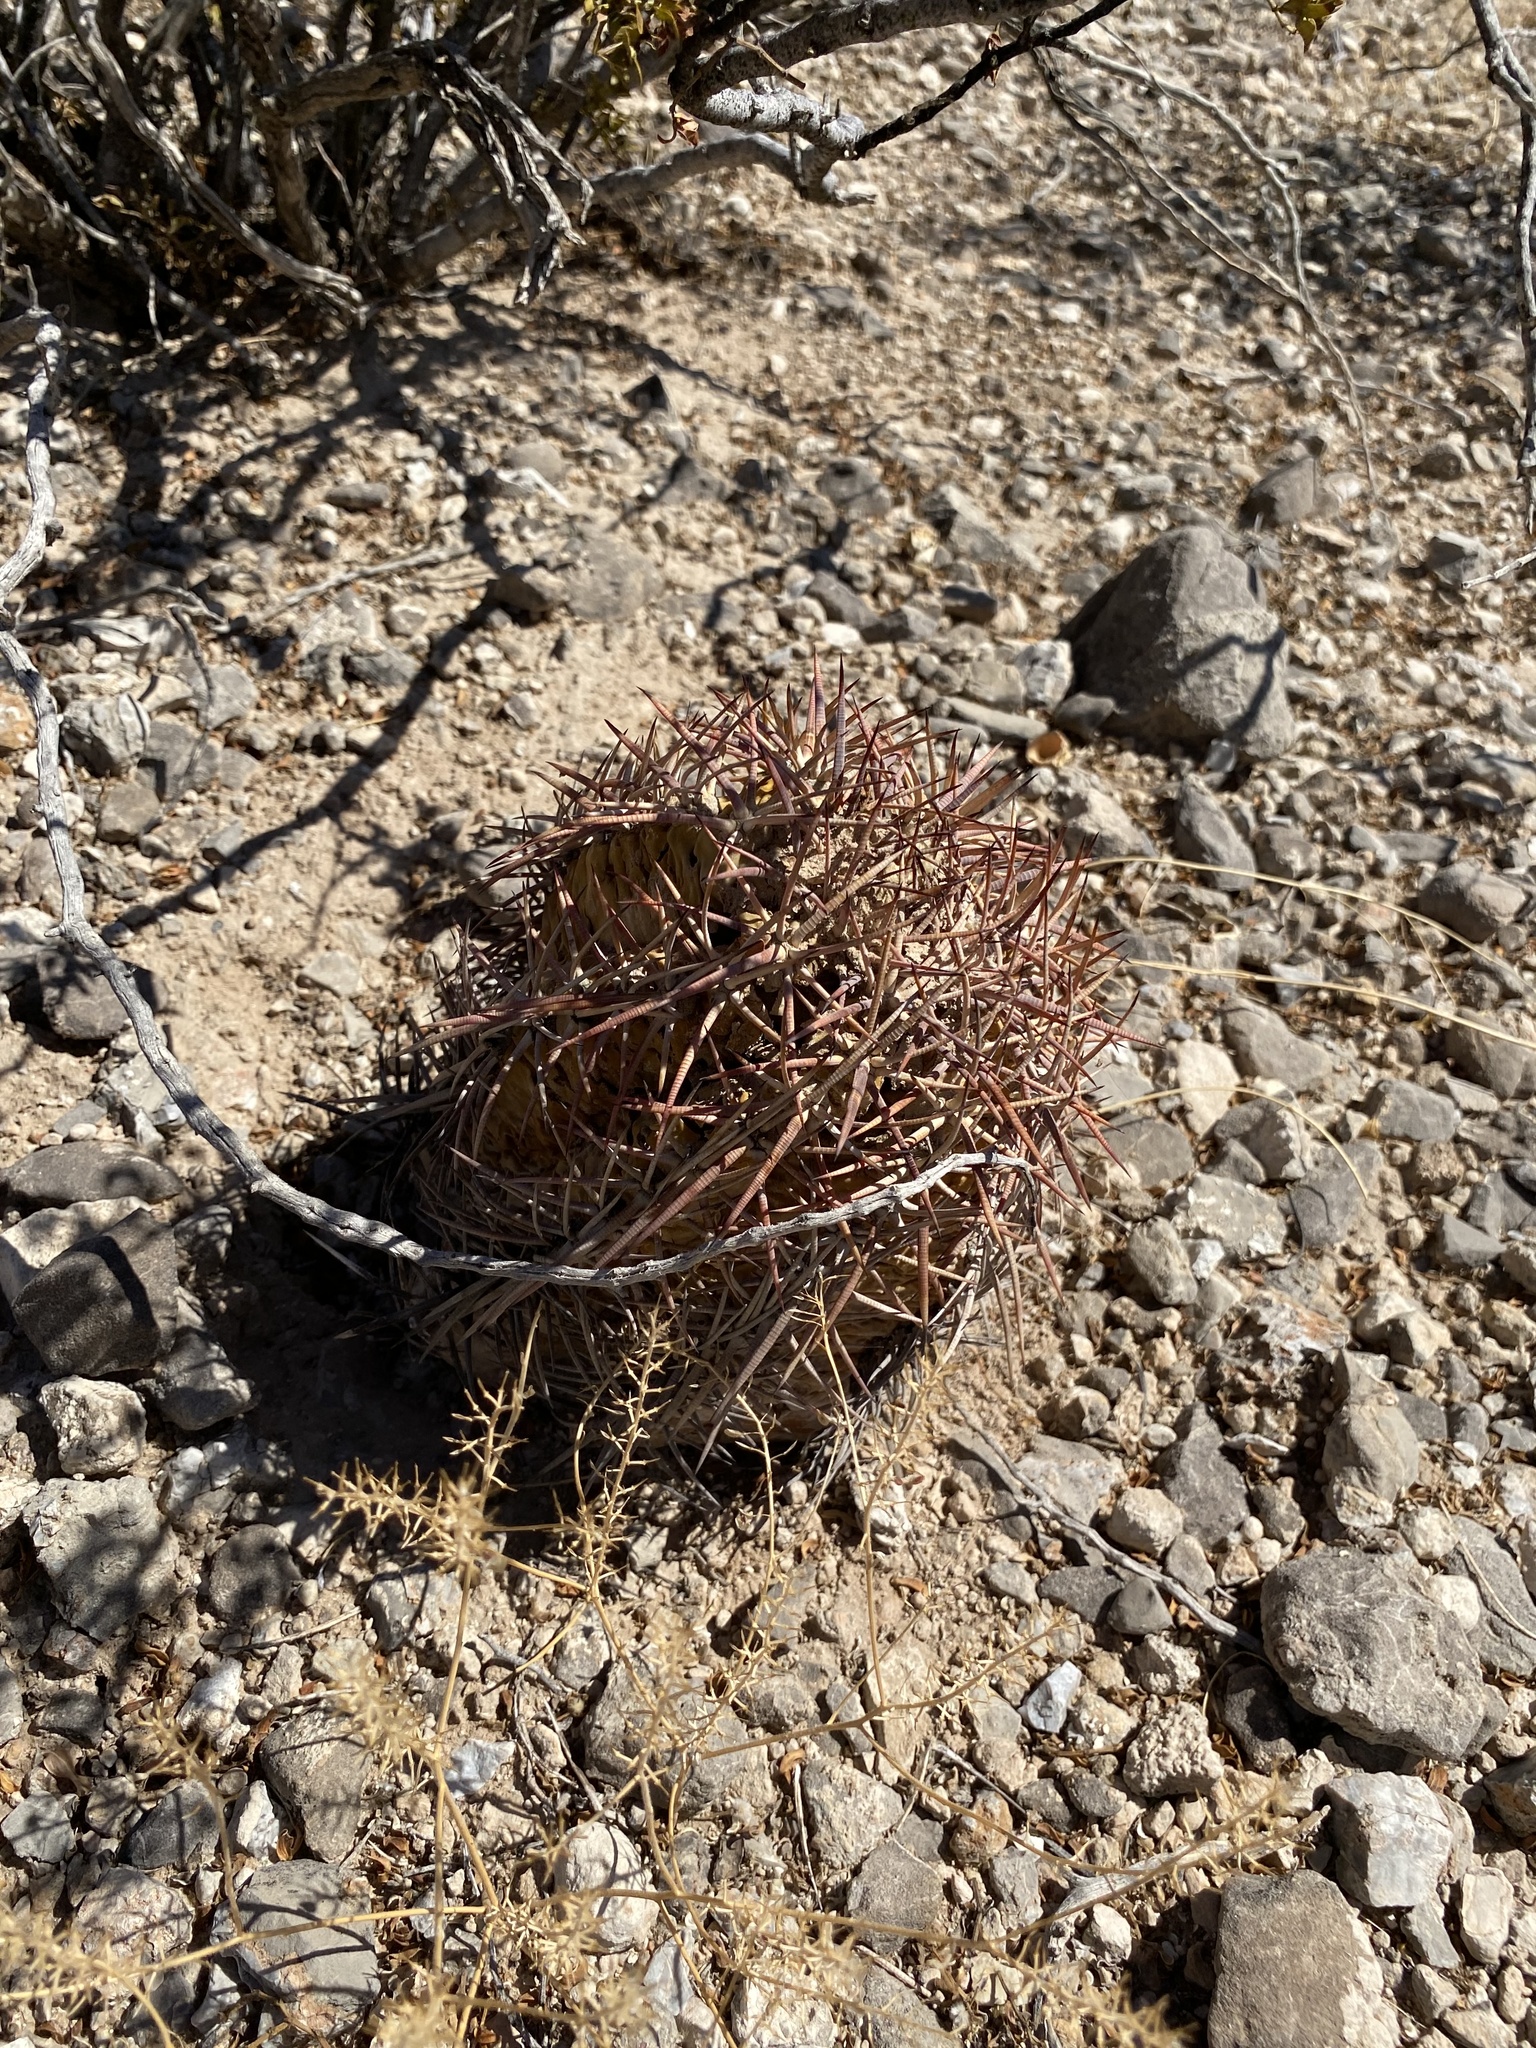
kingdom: Plantae
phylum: Tracheophyta
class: Magnoliopsida
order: Caryophyllales
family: Cactaceae
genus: Echinocactus
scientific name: Echinocactus horizonthalonius
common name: Devilshead
